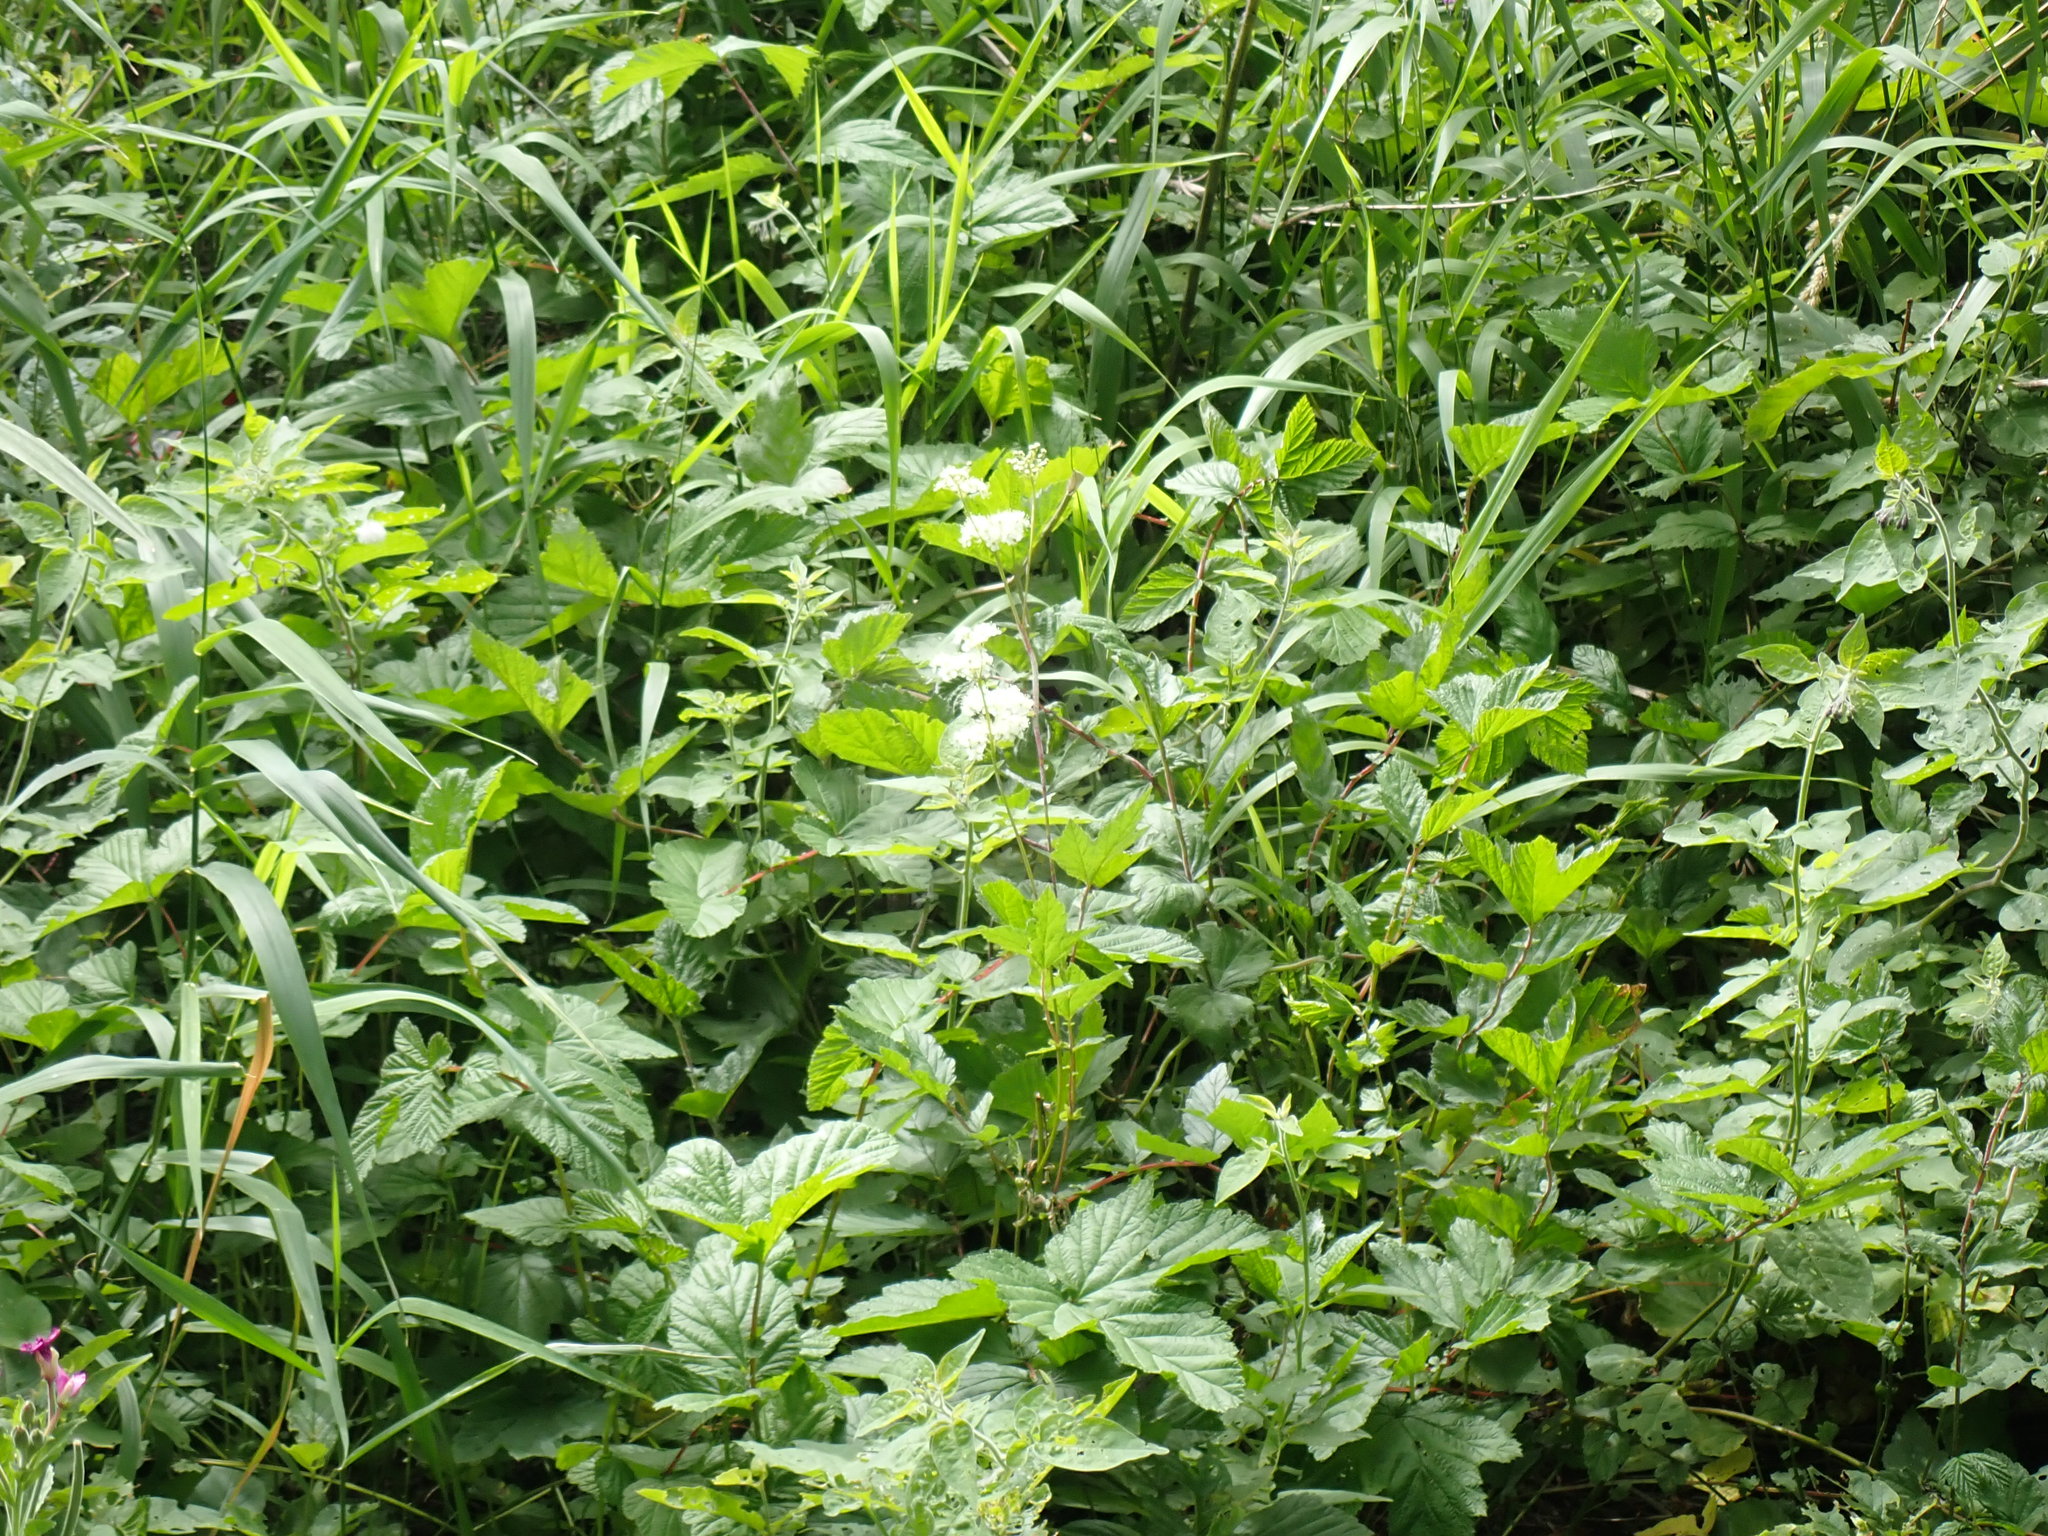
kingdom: Plantae
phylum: Tracheophyta
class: Magnoliopsida
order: Rosales
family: Rosaceae
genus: Filipendula
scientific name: Filipendula ulmaria
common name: Meadowsweet
